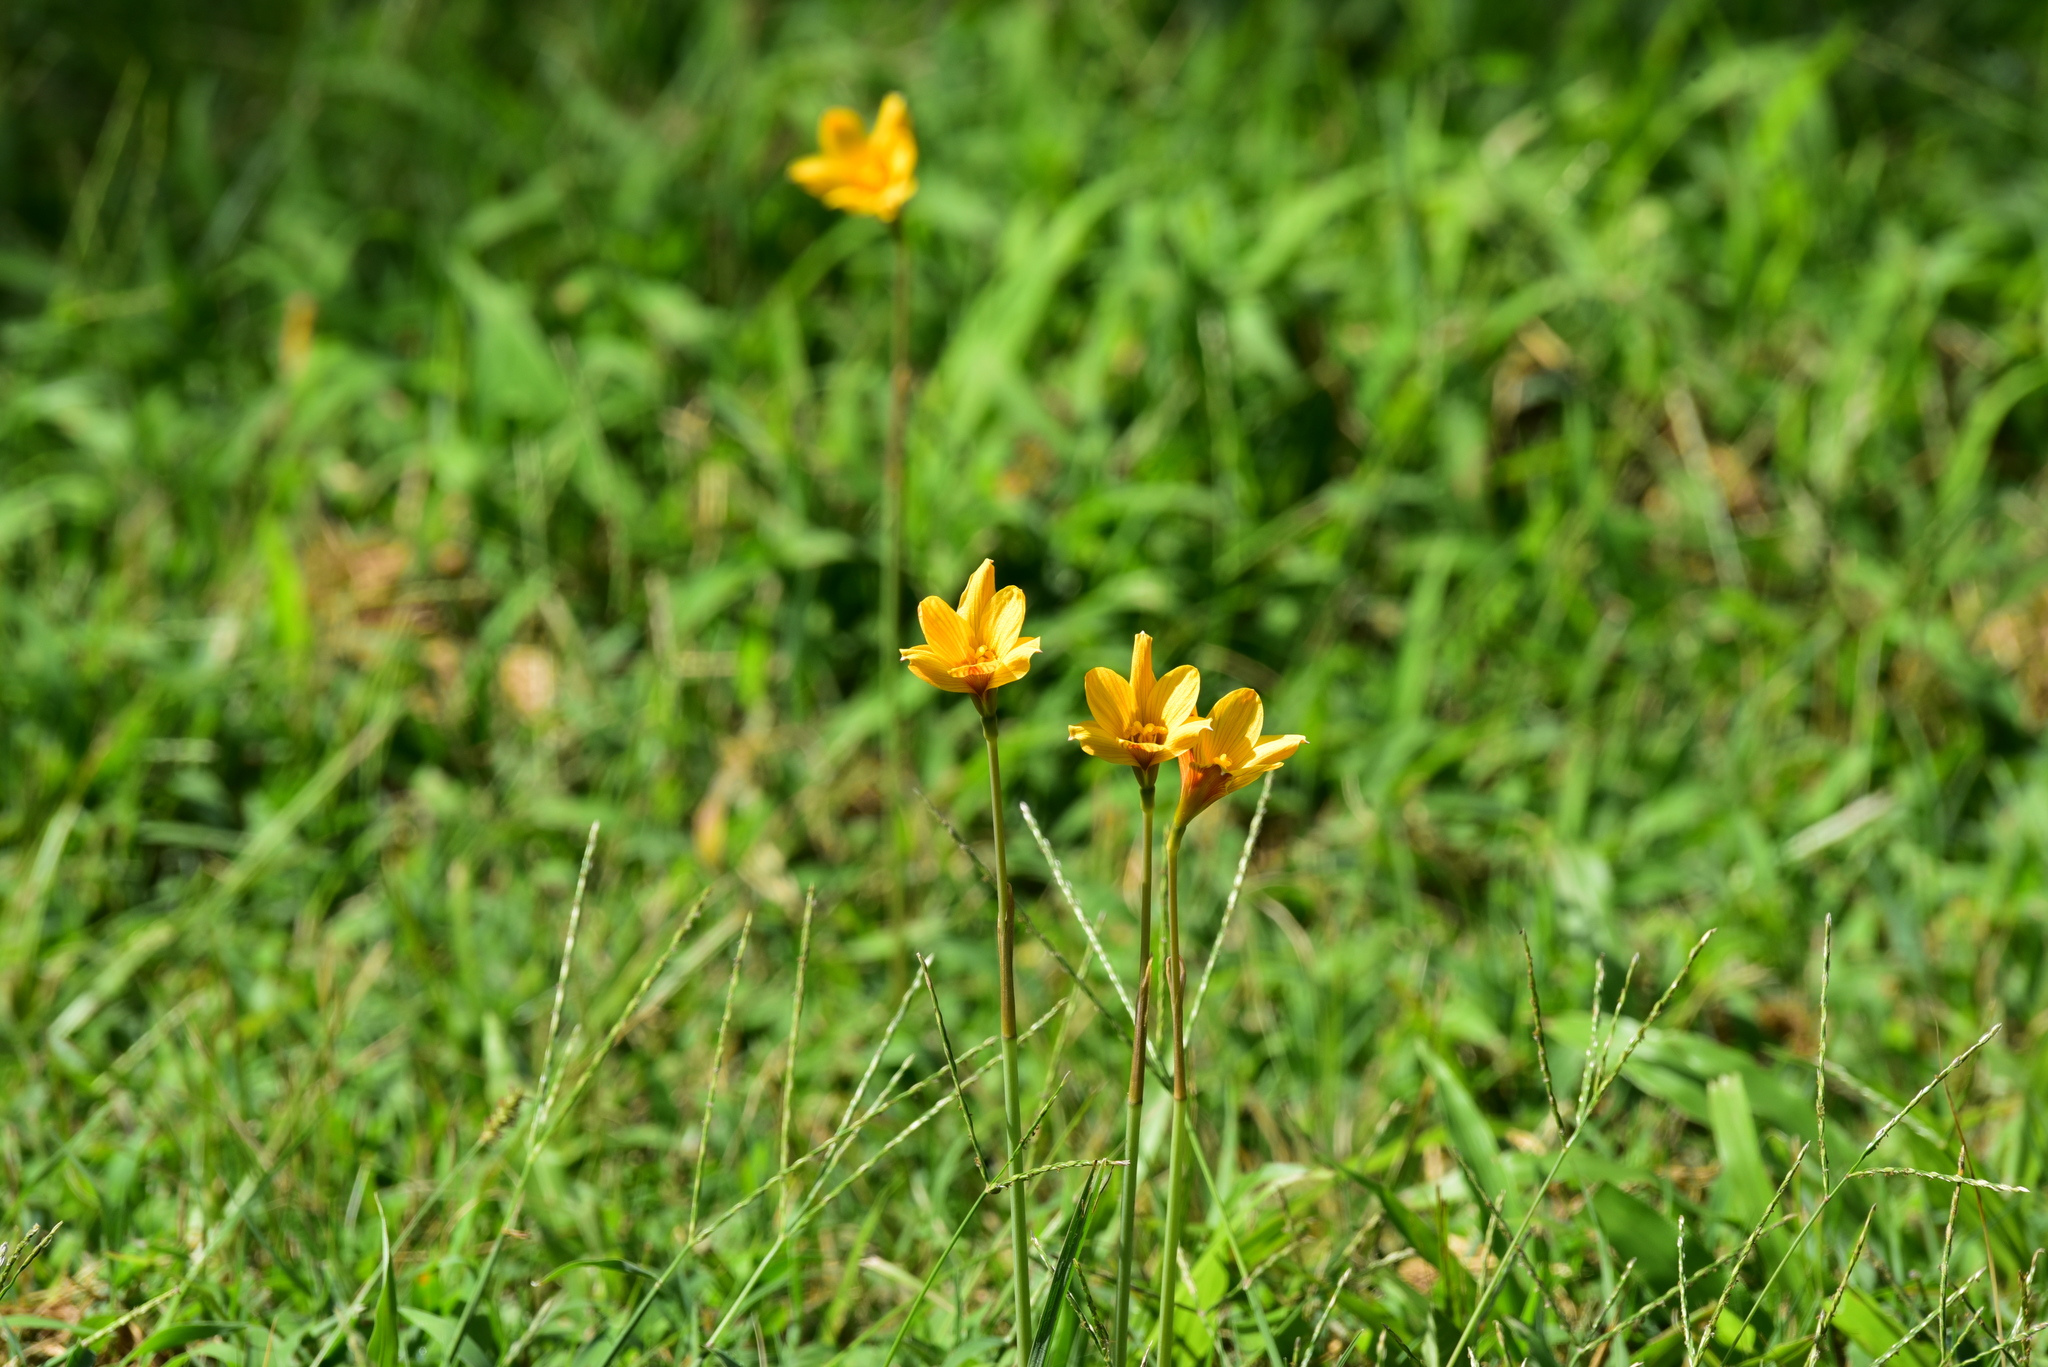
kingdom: Plantae
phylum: Tracheophyta
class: Liliopsida
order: Asparagales
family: Amaryllidaceae
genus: Zephyranthes
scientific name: Zephyranthes tubispatha
